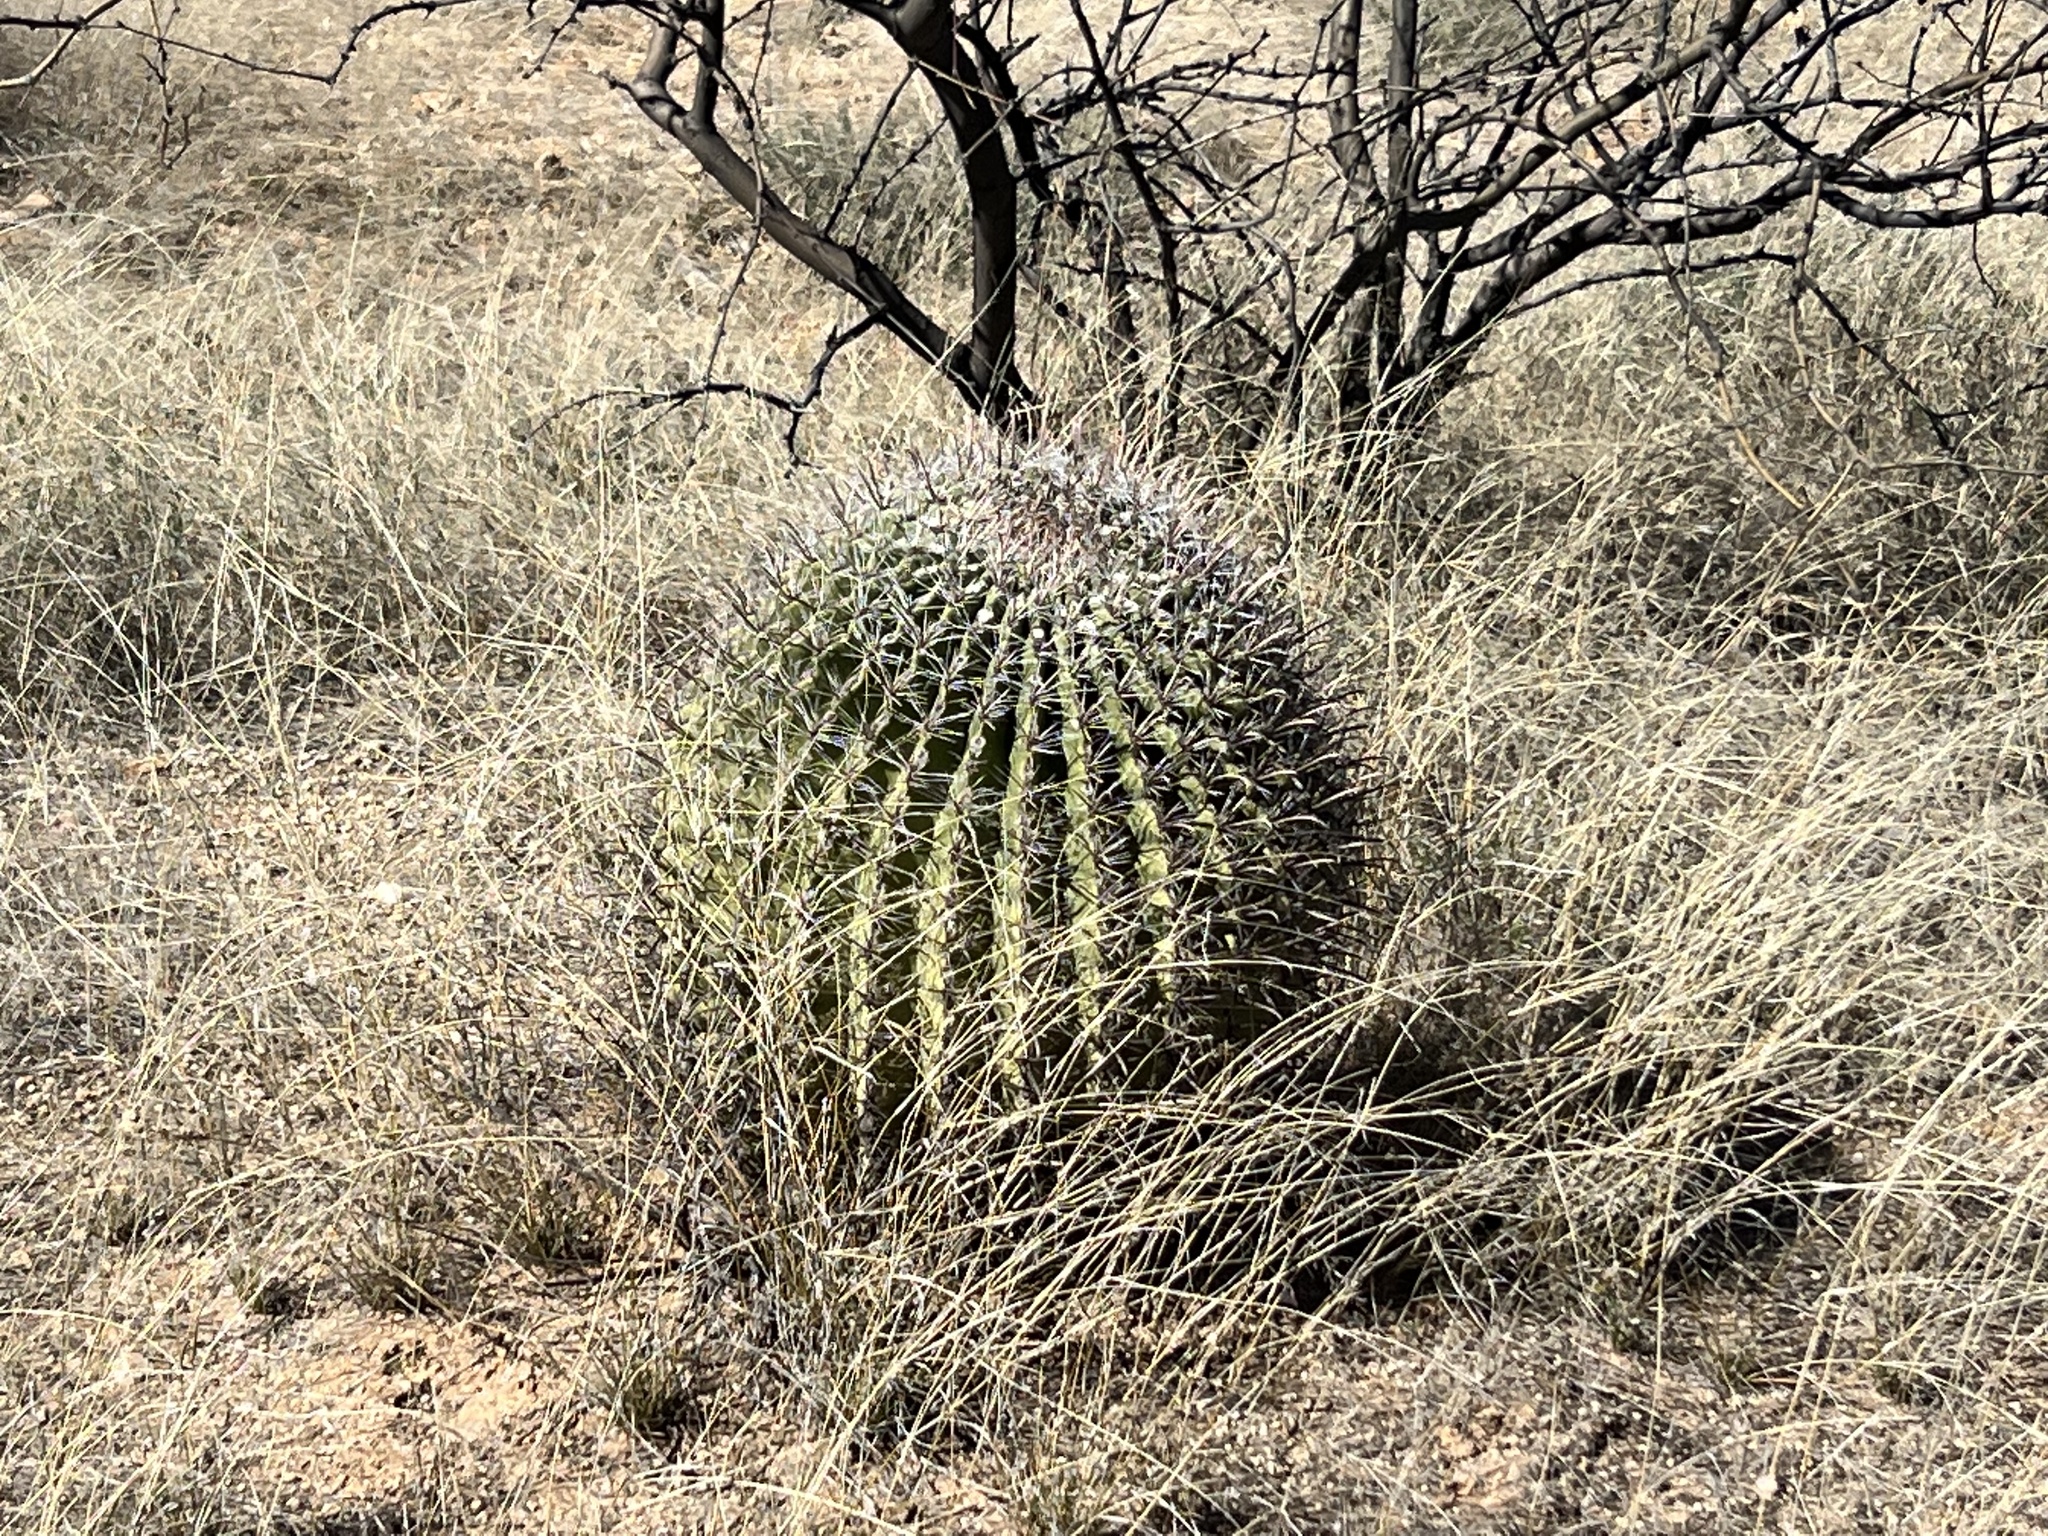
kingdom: Plantae
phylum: Tracheophyta
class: Magnoliopsida
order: Caryophyllales
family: Cactaceae
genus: Ferocactus
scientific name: Ferocactus wislizeni
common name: Candy barrel cactus
